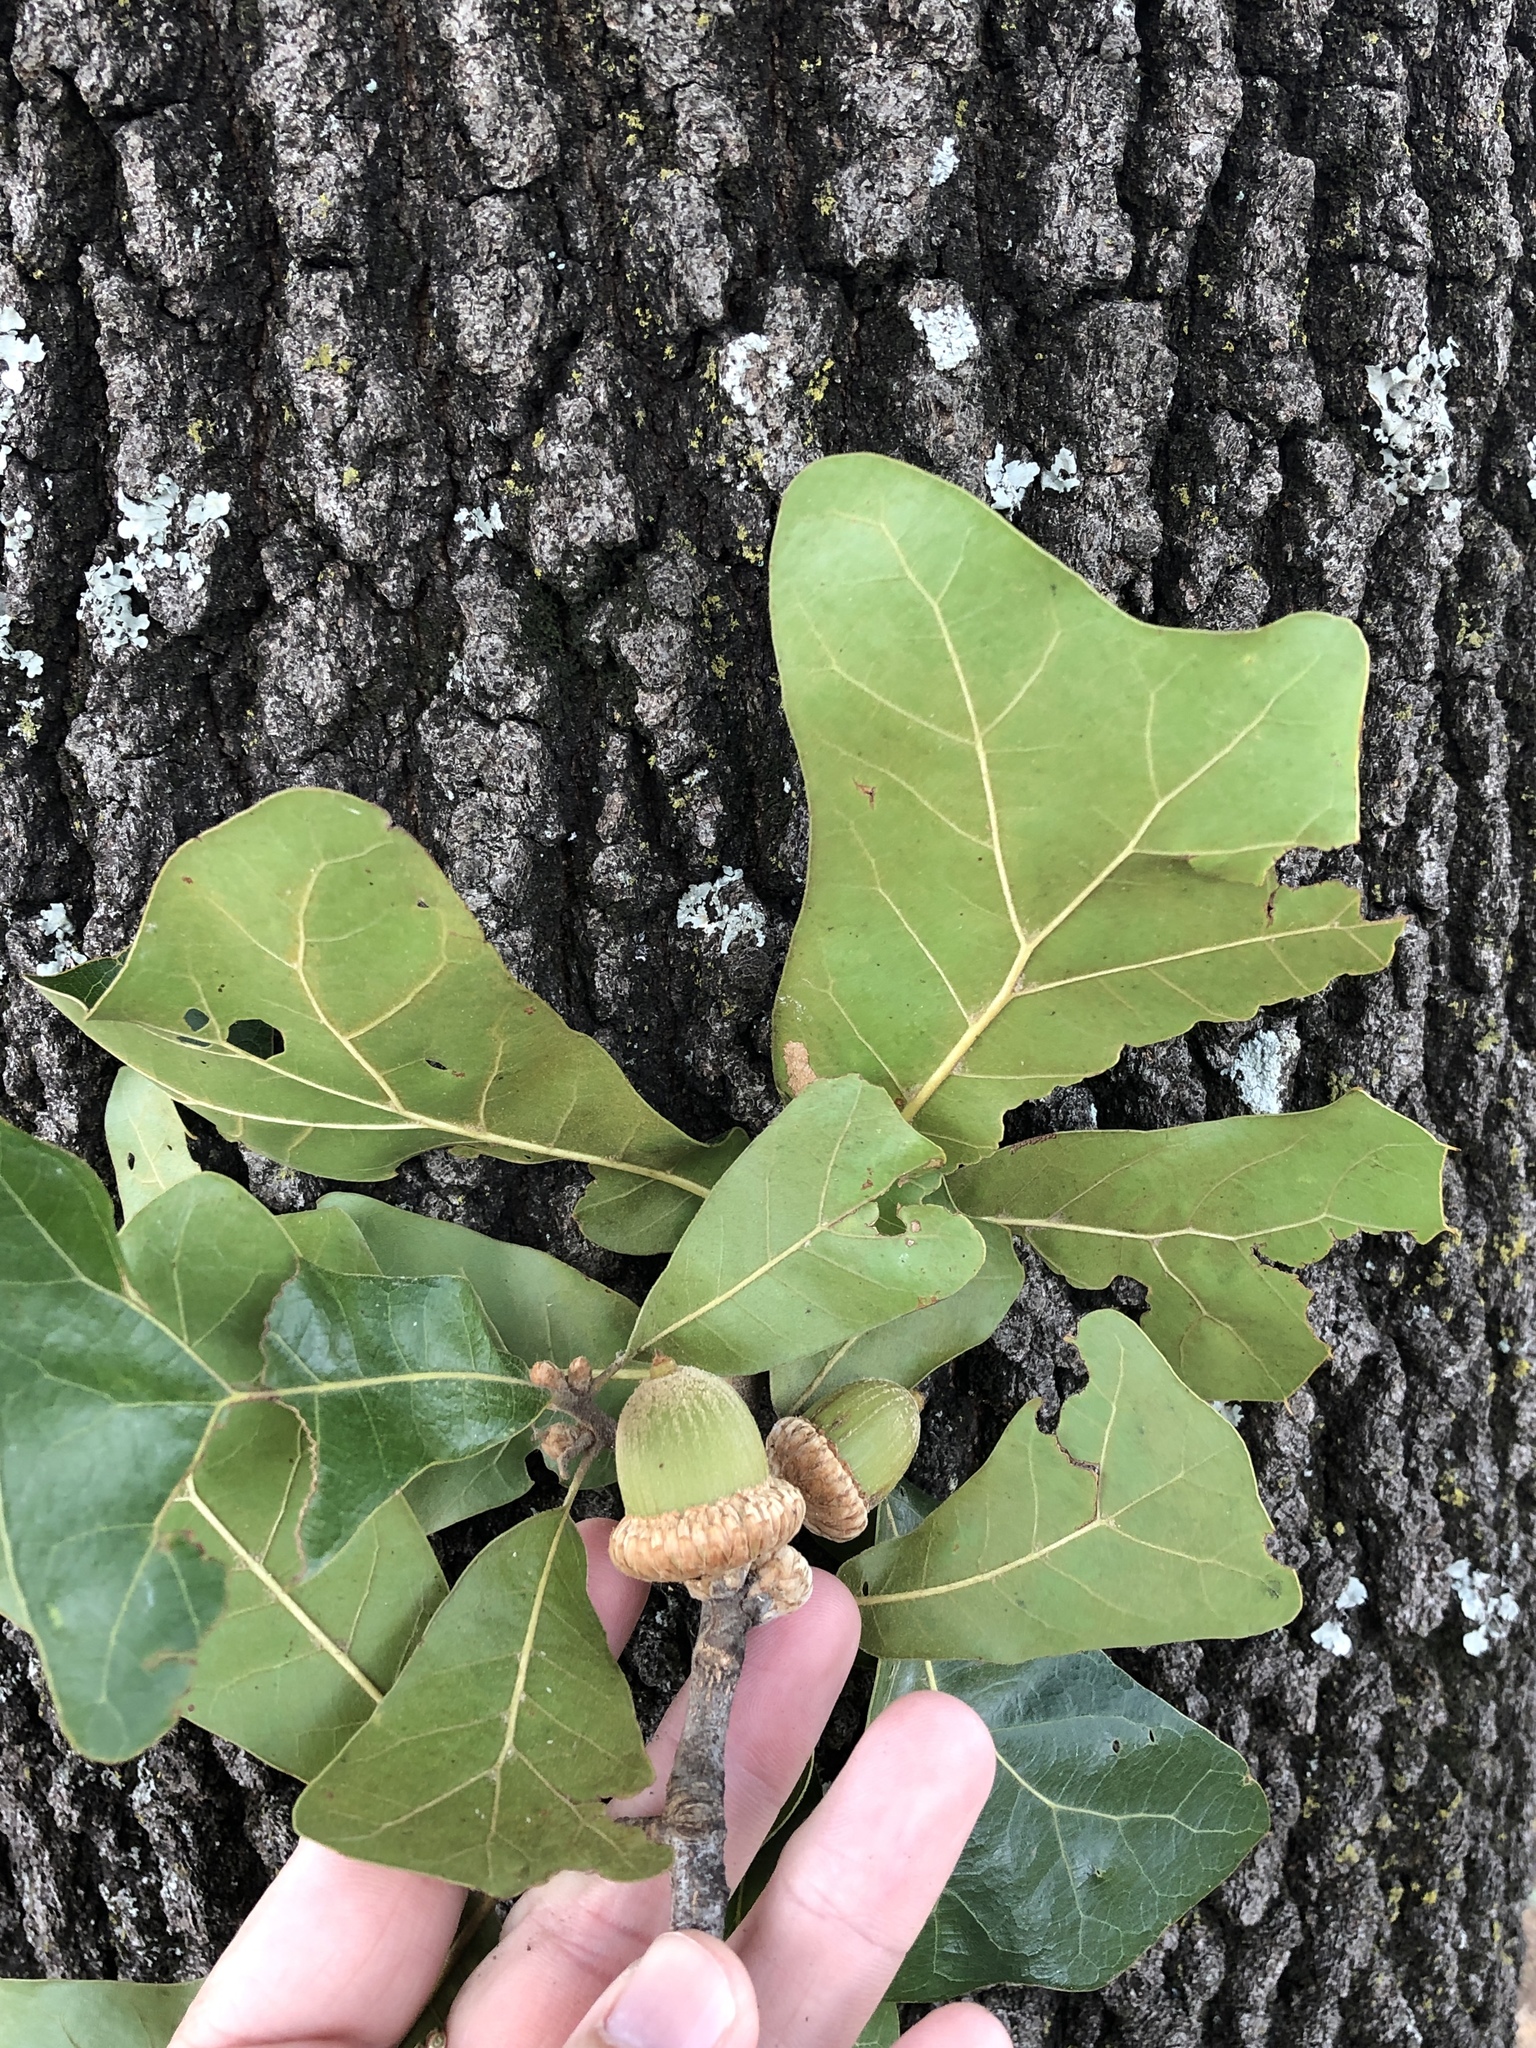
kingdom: Plantae
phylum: Tracheophyta
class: Magnoliopsida
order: Fagales
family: Fagaceae
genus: Quercus
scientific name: Quercus marilandica
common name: Blackjack oak
